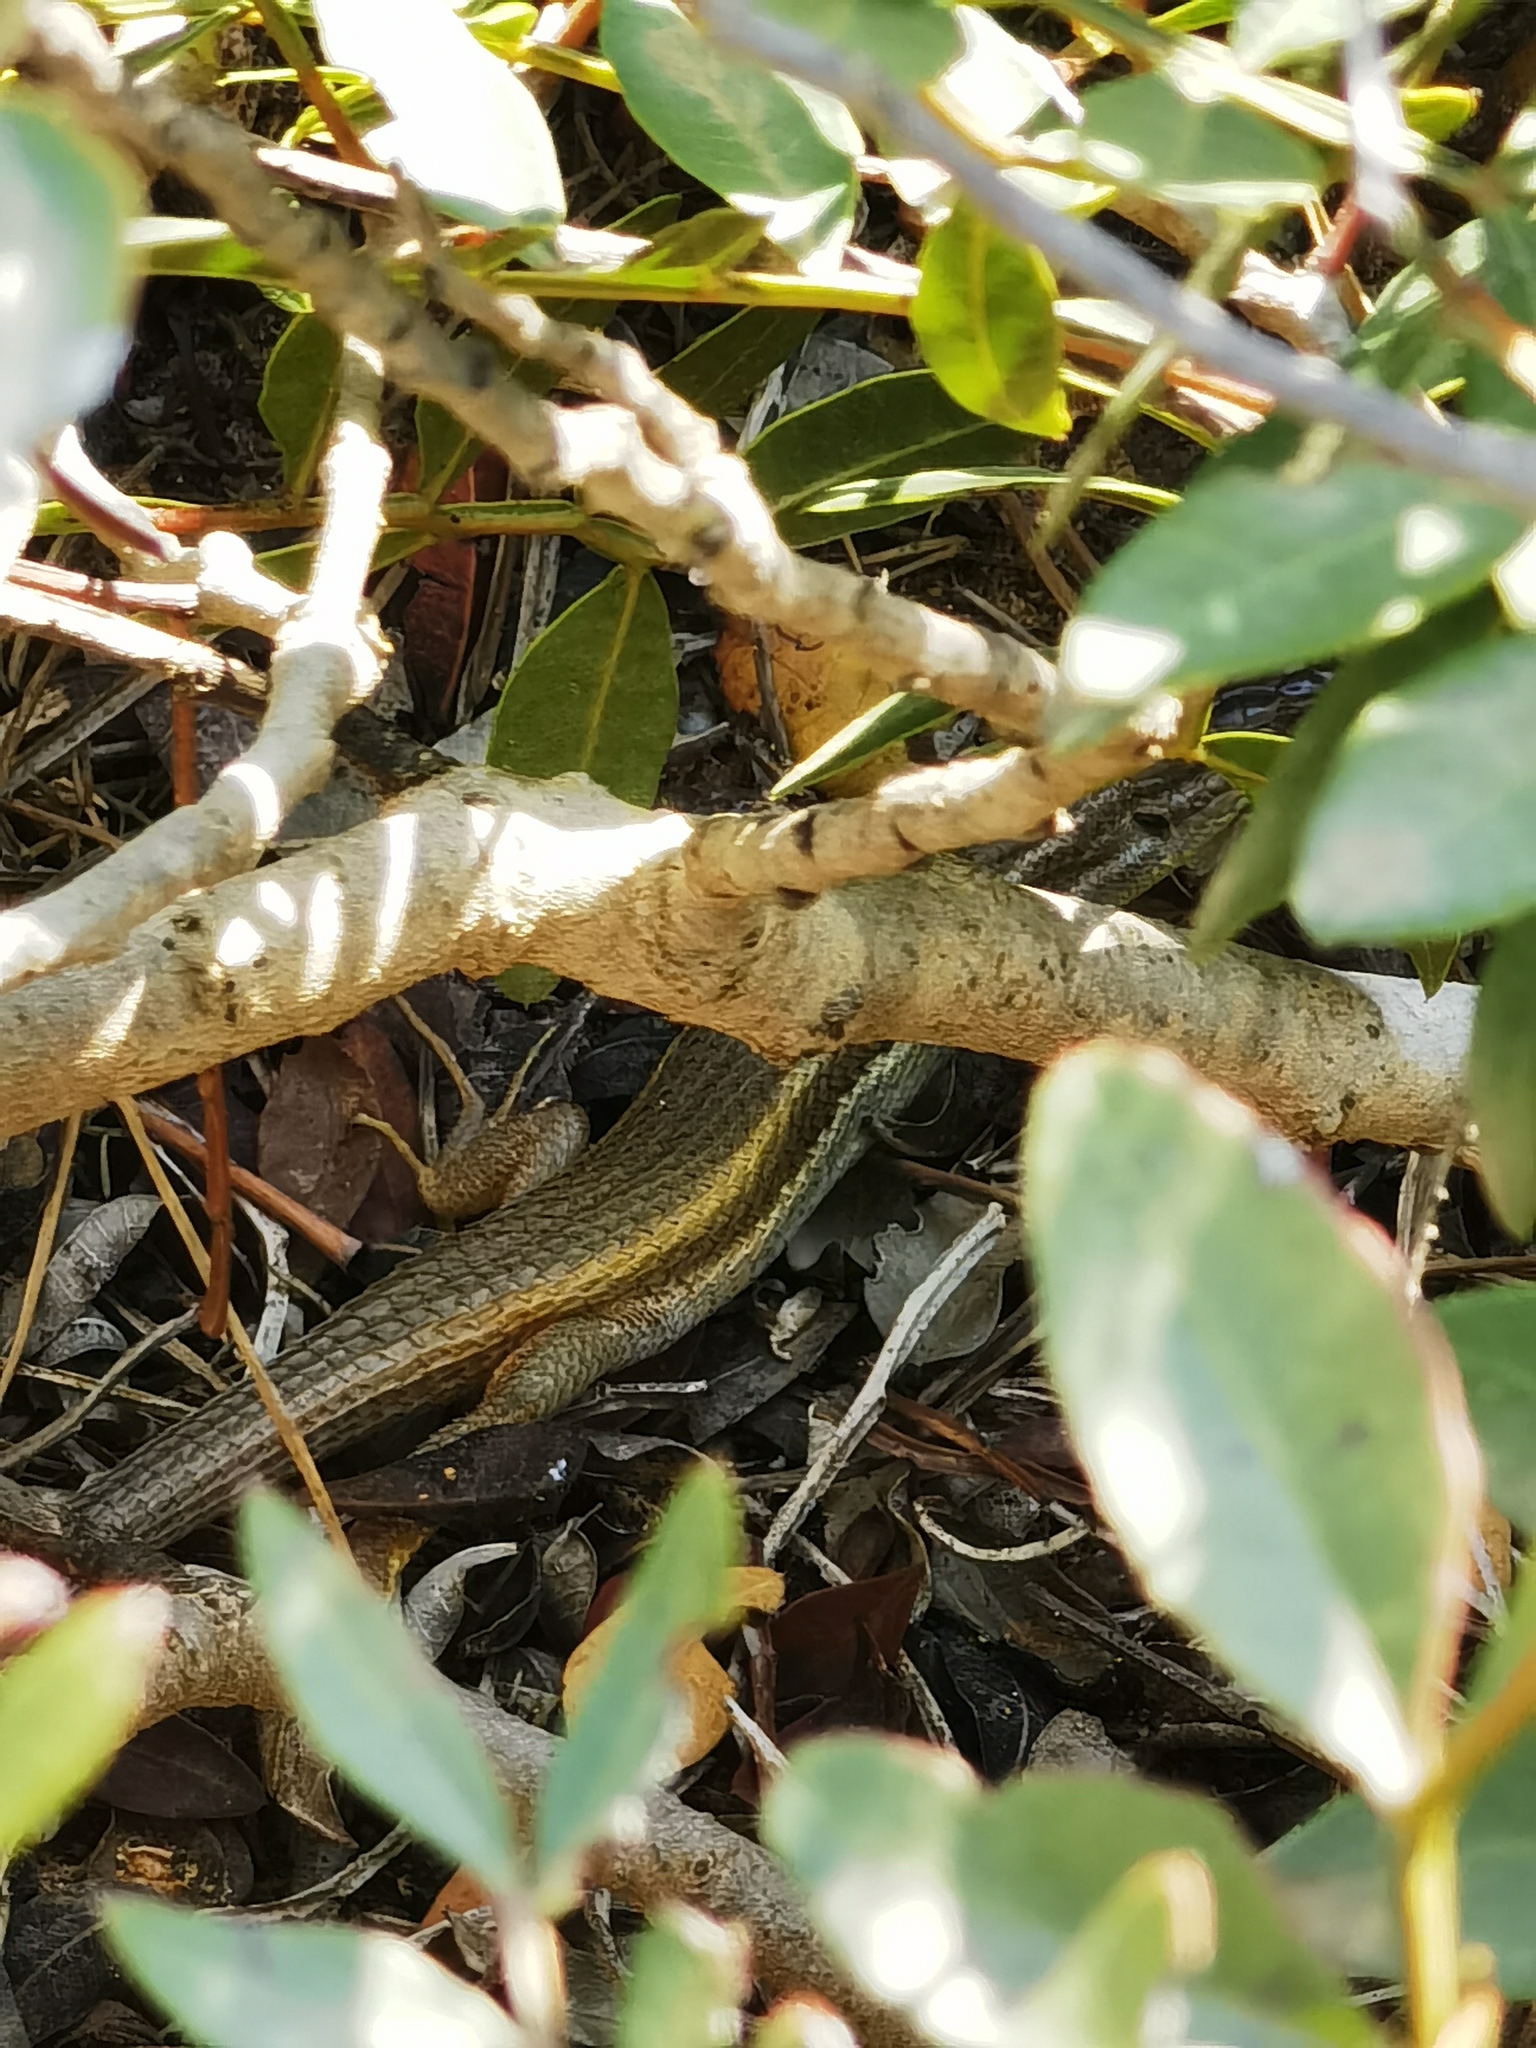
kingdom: Animalia
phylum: Chordata
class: Squamata
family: Lacertidae
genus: Psammodromus
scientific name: Psammodromus algirus
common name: Algerian psammodromus
